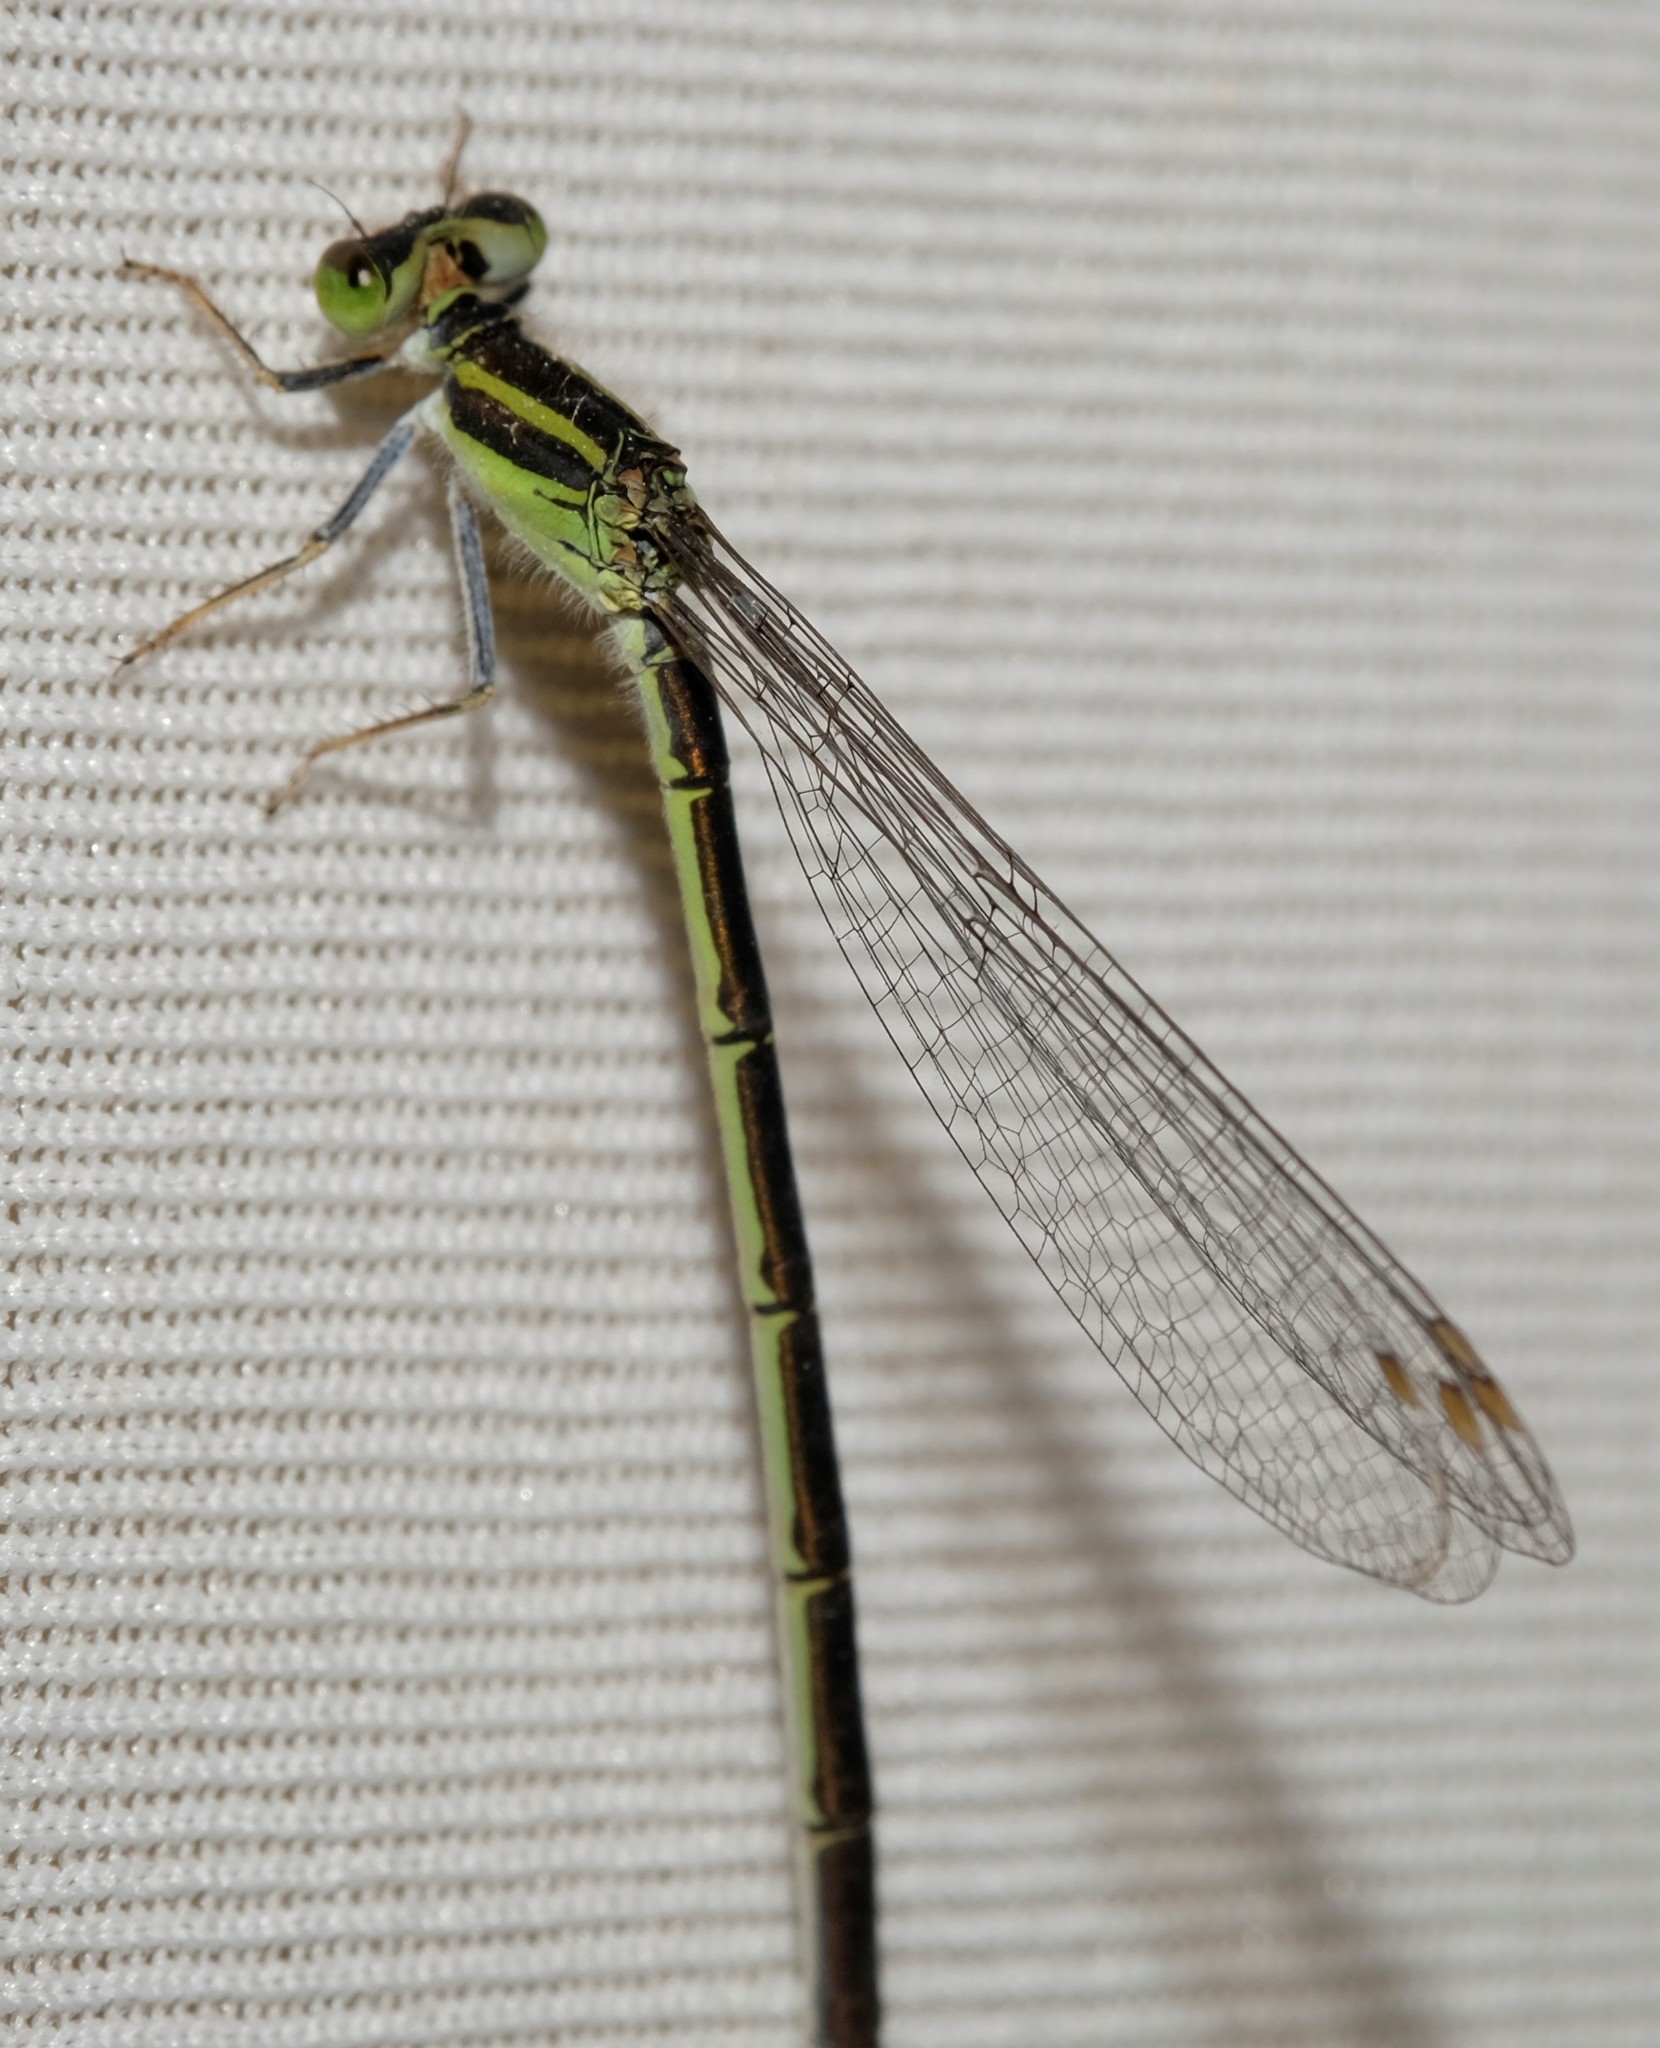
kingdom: Animalia
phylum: Arthropoda
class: Insecta
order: Odonata
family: Coenagrionidae
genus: Ischnura
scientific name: Ischnura aurora
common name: Gossamer damselfly
